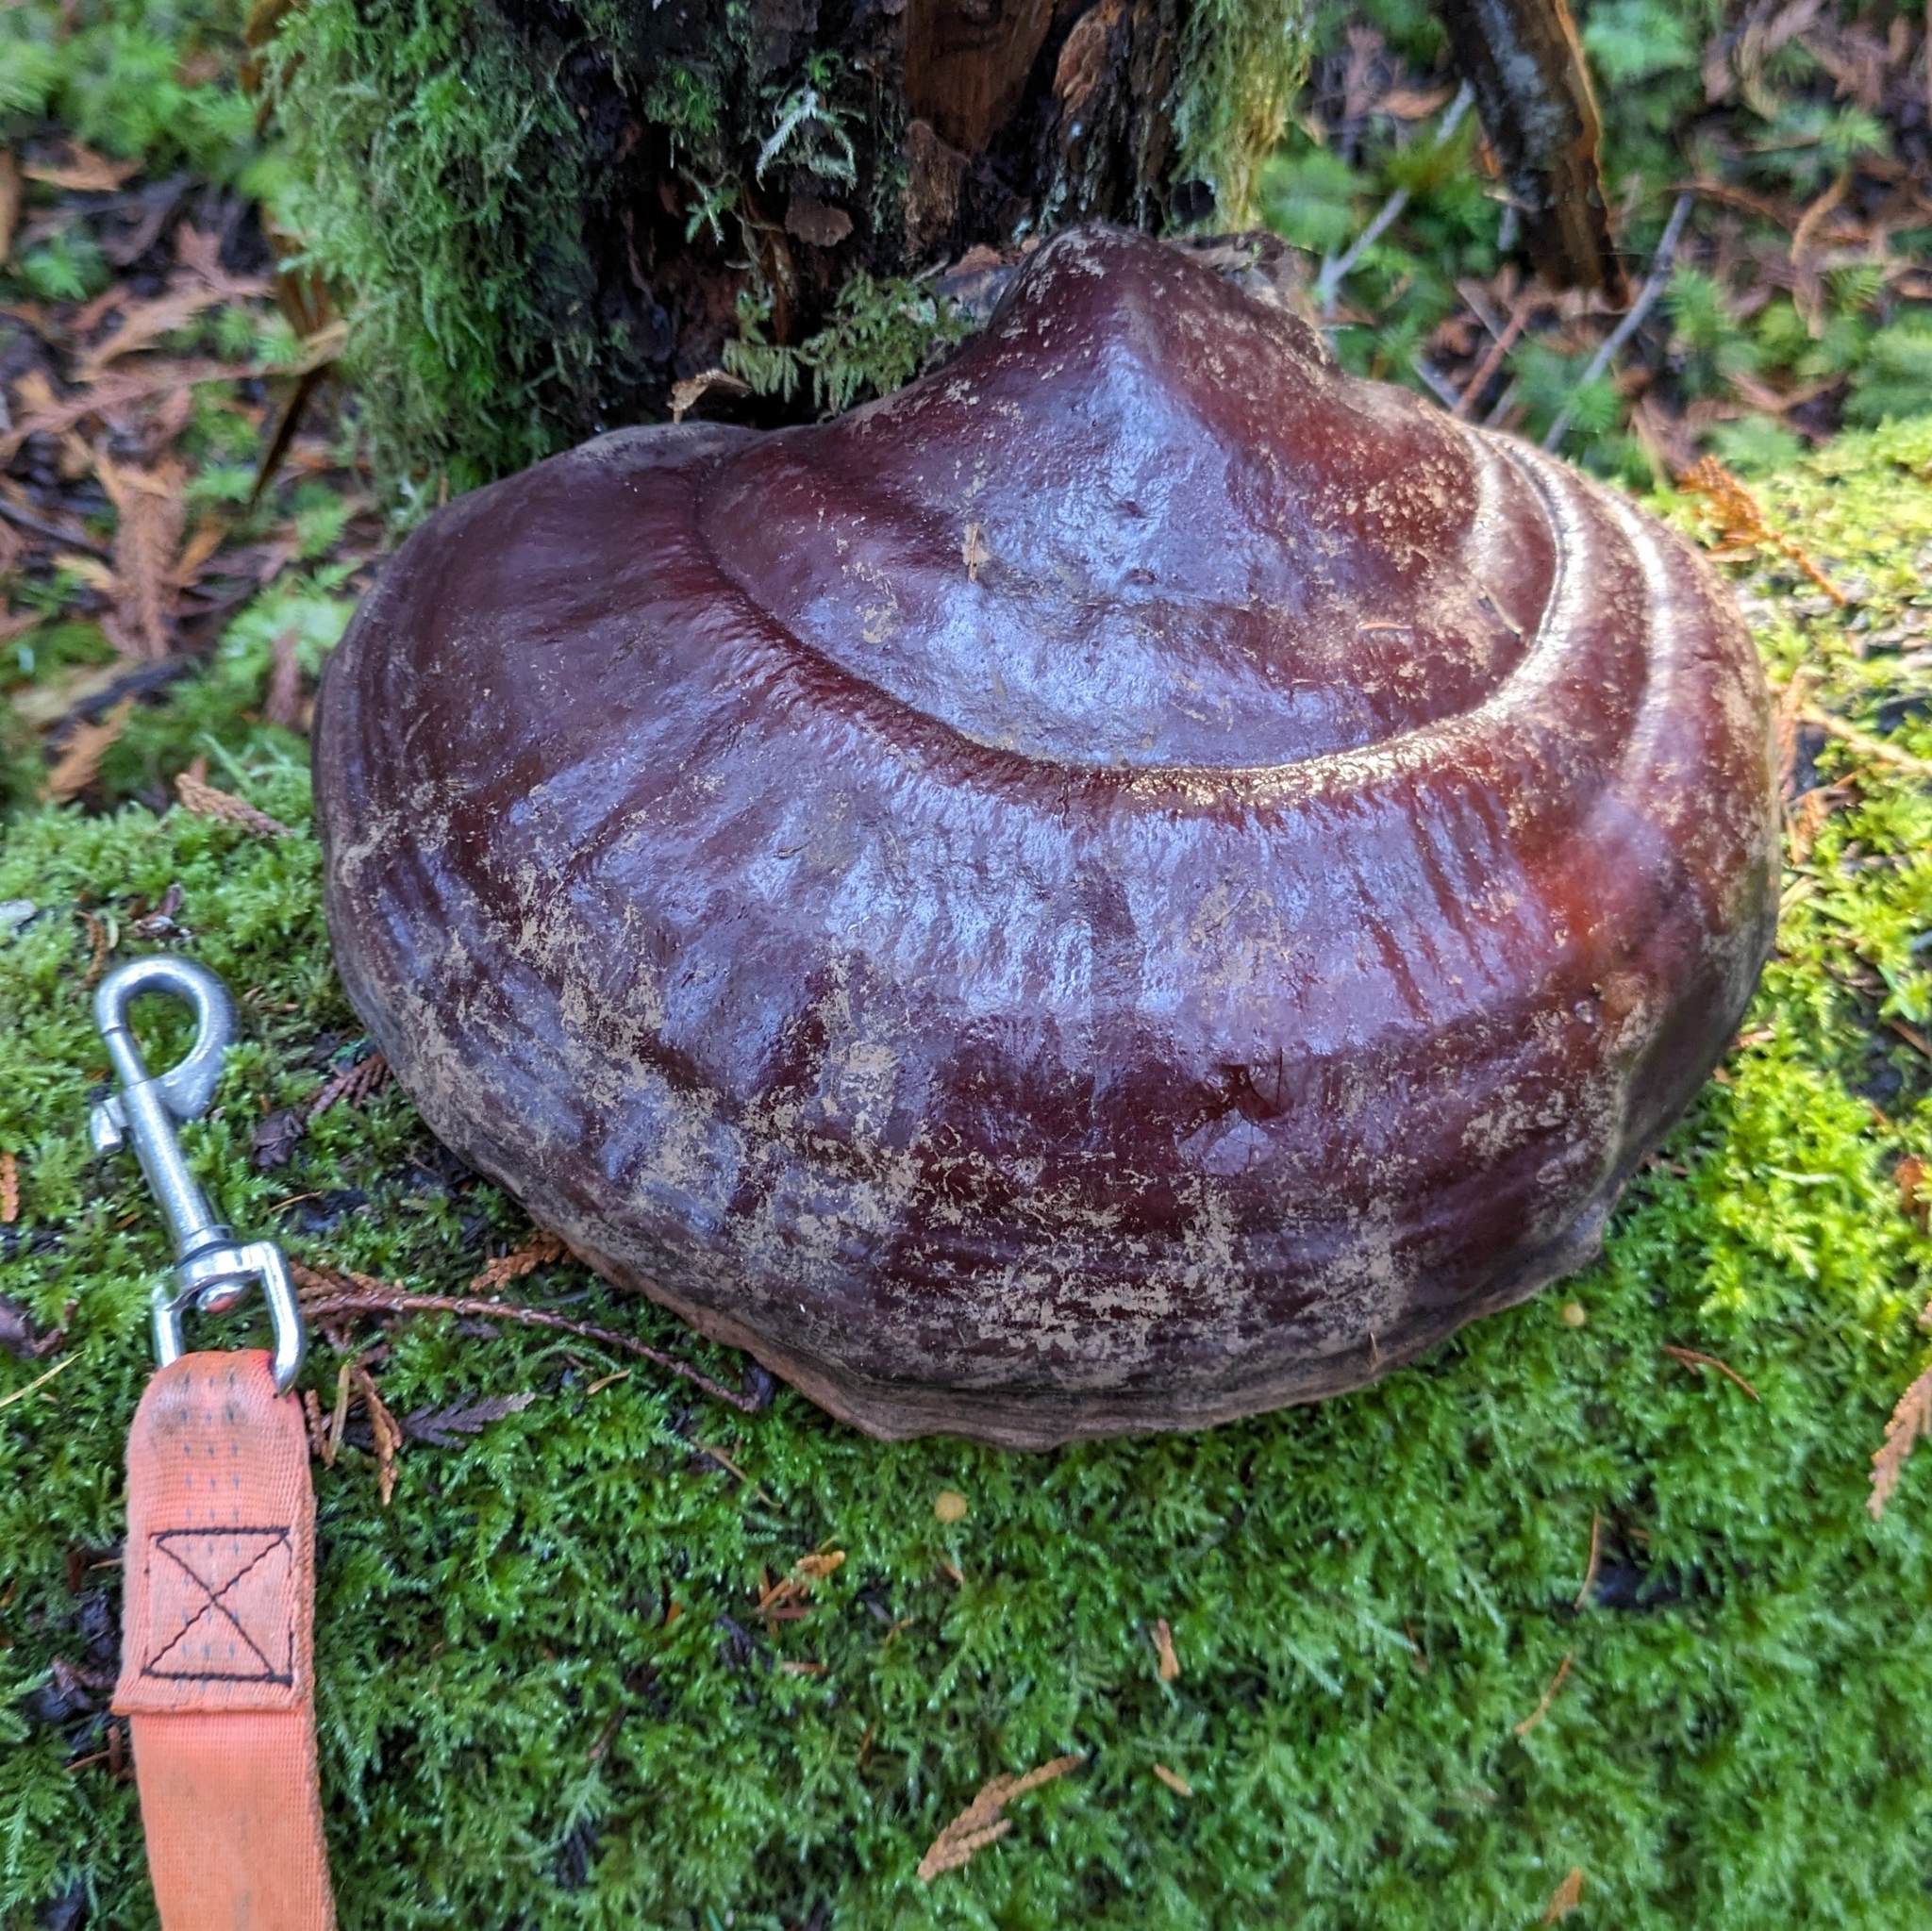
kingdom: Fungi
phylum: Basidiomycota
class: Agaricomycetes
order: Polyporales
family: Polyporaceae
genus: Ganoderma
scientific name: Ganoderma oregonense
